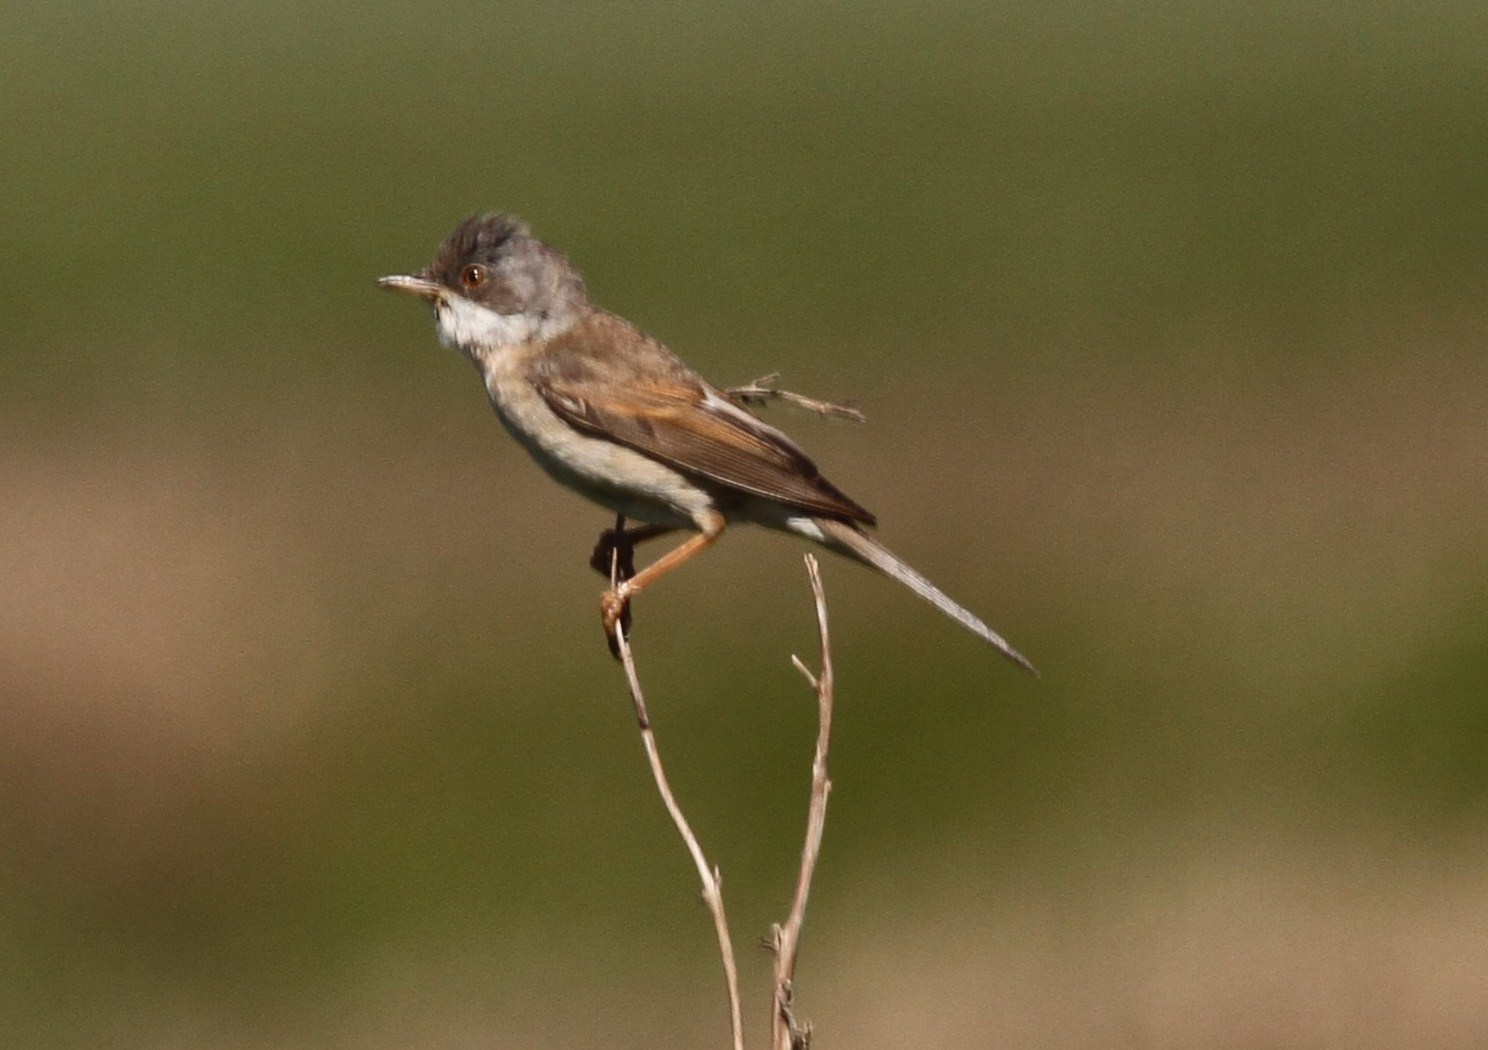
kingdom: Animalia
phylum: Chordata
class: Aves
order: Passeriformes
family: Sylviidae
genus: Sylvia
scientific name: Sylvia communis
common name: Common whitethroat
